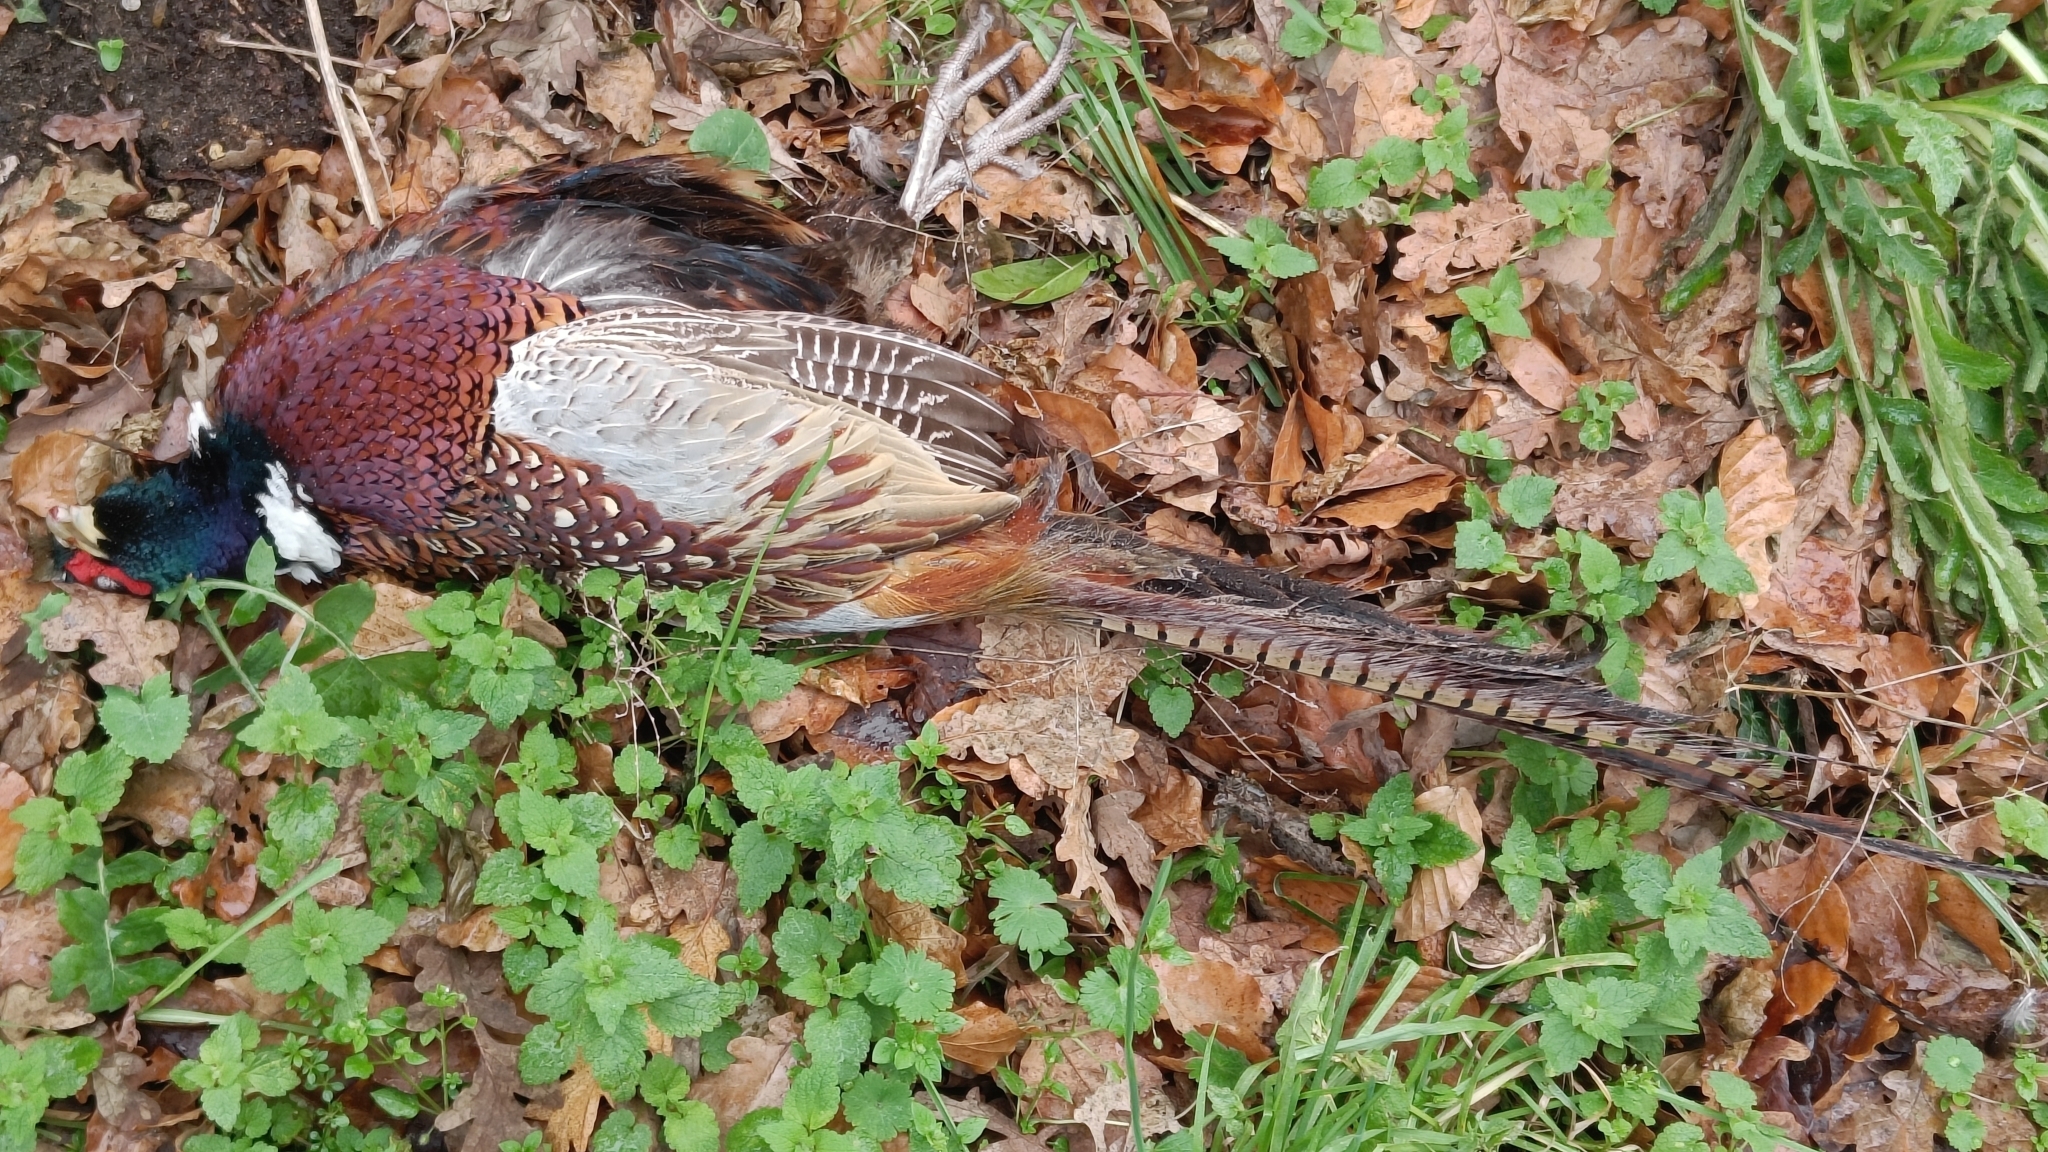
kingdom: Animalia
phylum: Chordata
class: Aves
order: Galliformes
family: Phasianidae
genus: Phasianus
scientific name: Phasianus colchicus
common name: Common pheasant
